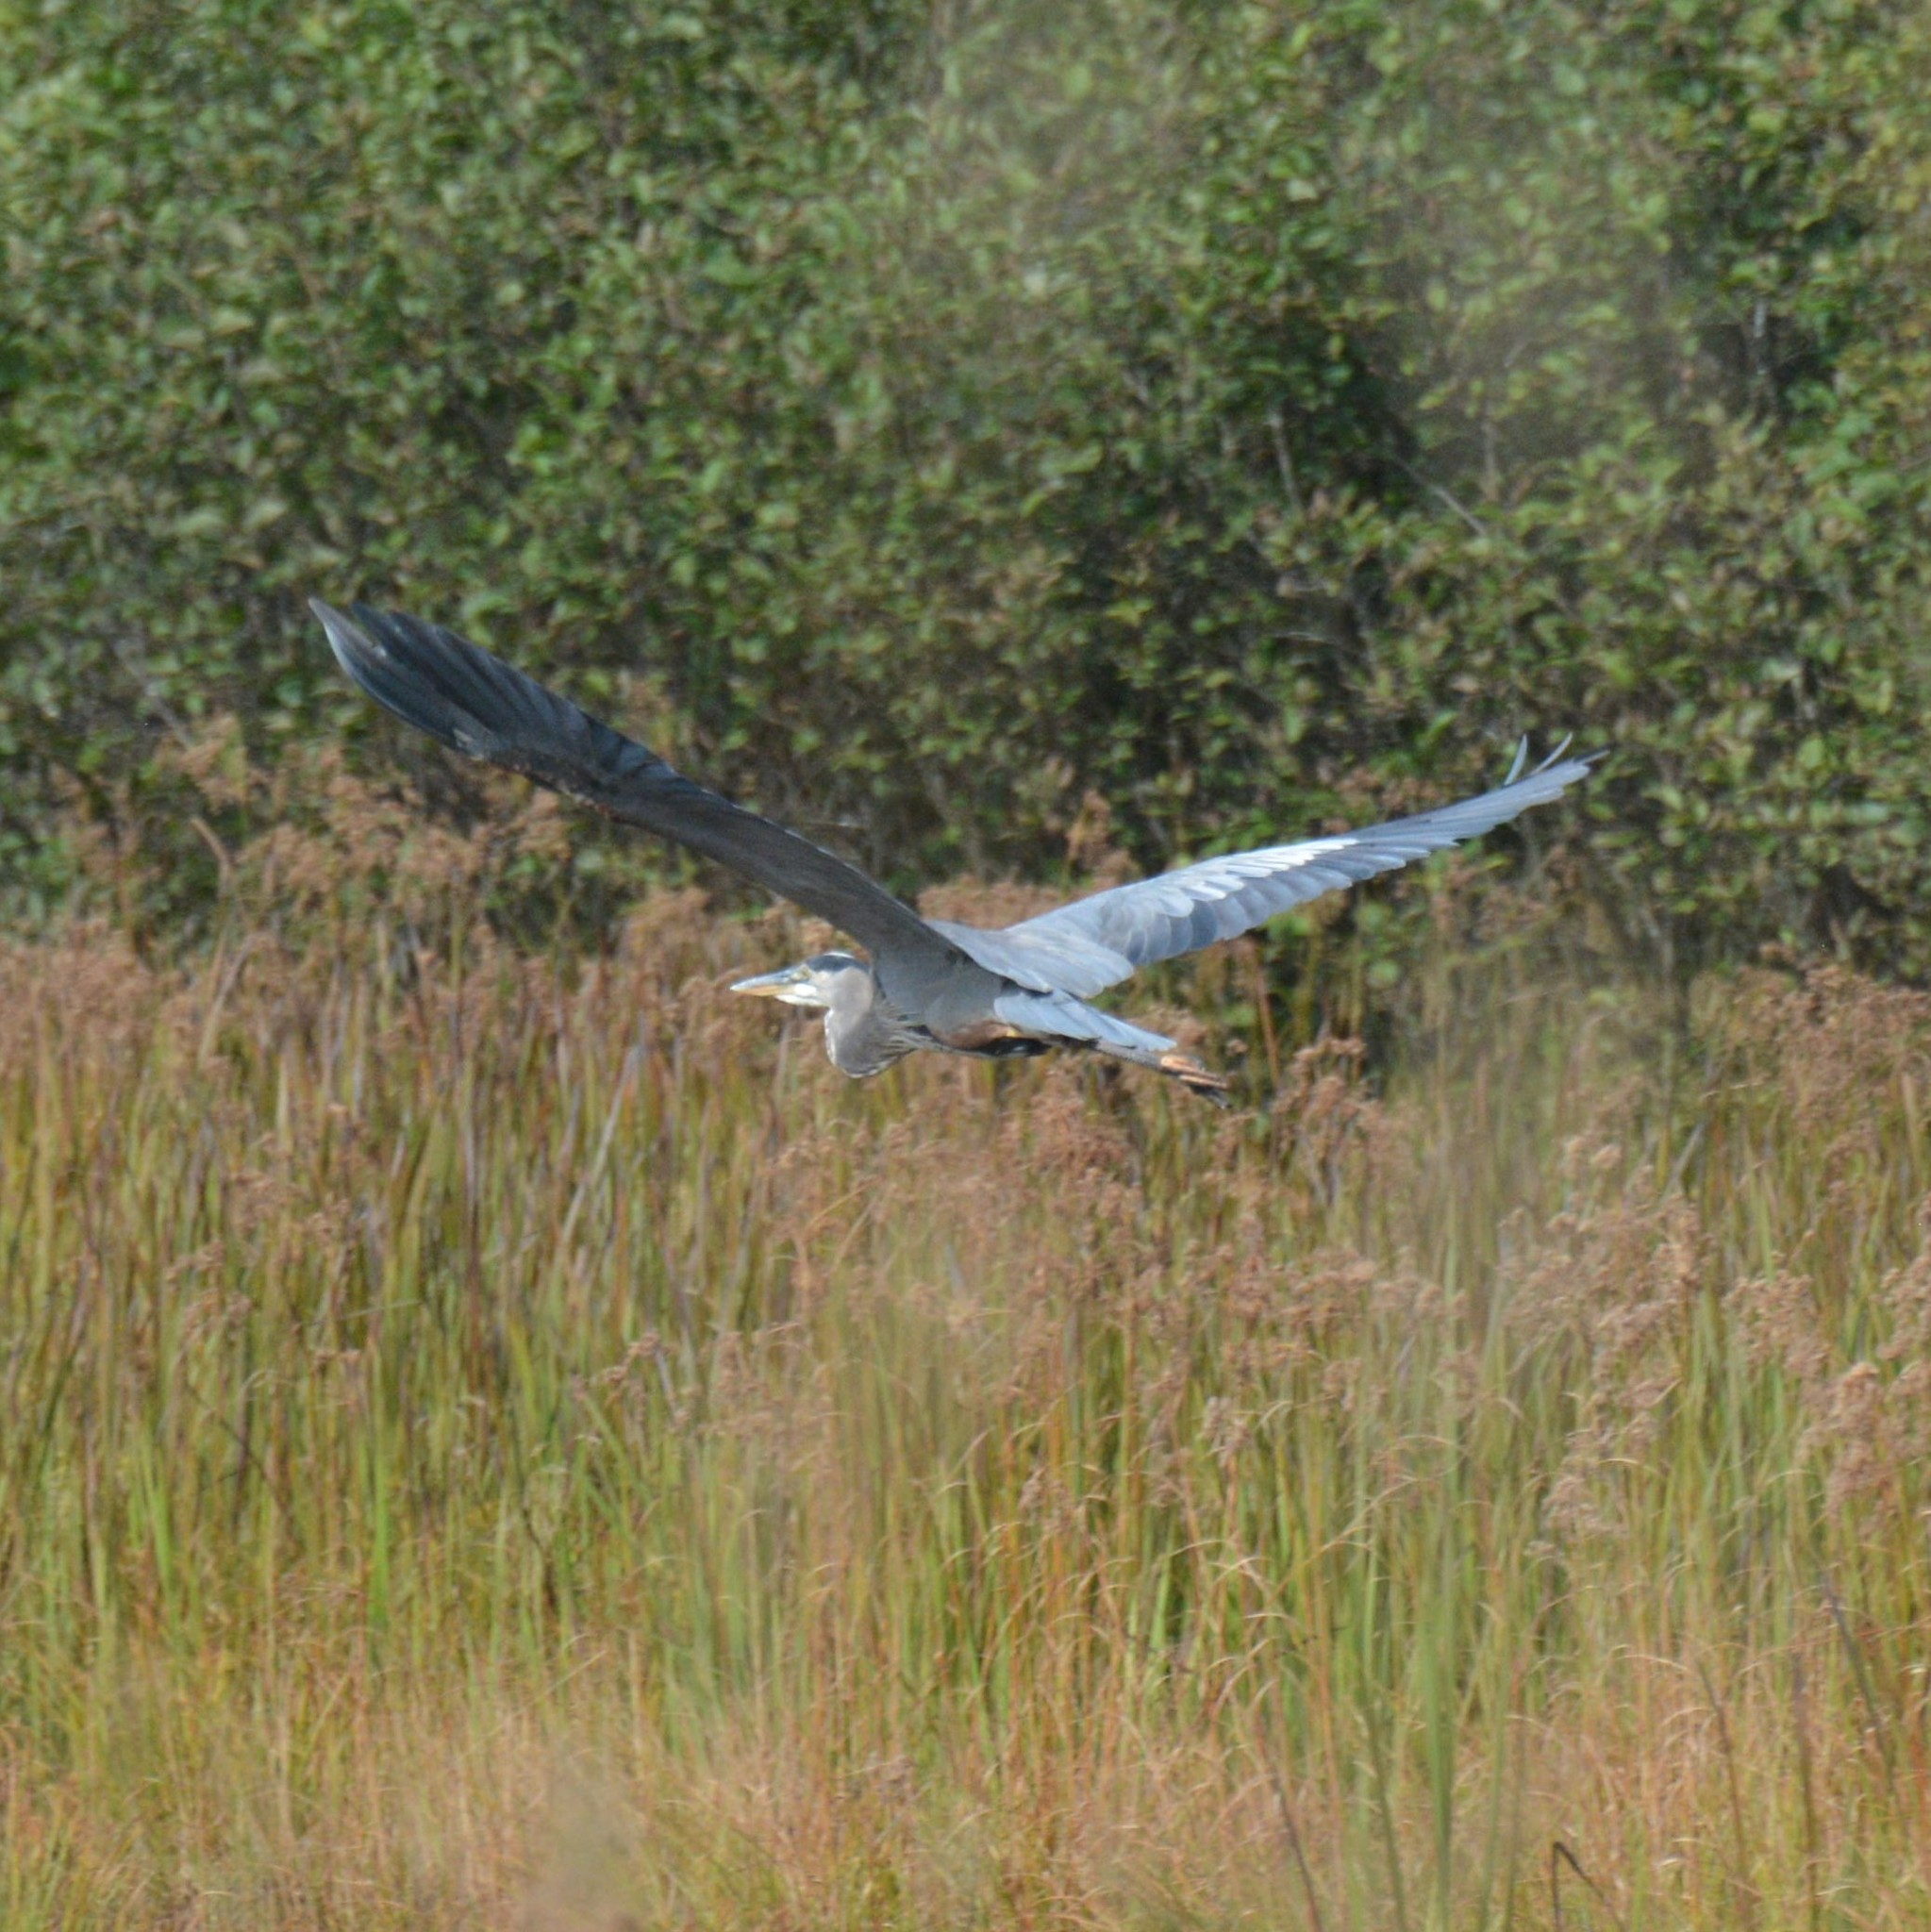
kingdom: Animalia
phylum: Chordata
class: Aves
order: Pelecaniformes
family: Ardeidae
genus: Ardea
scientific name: Ardea herodias
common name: Great blue heron
